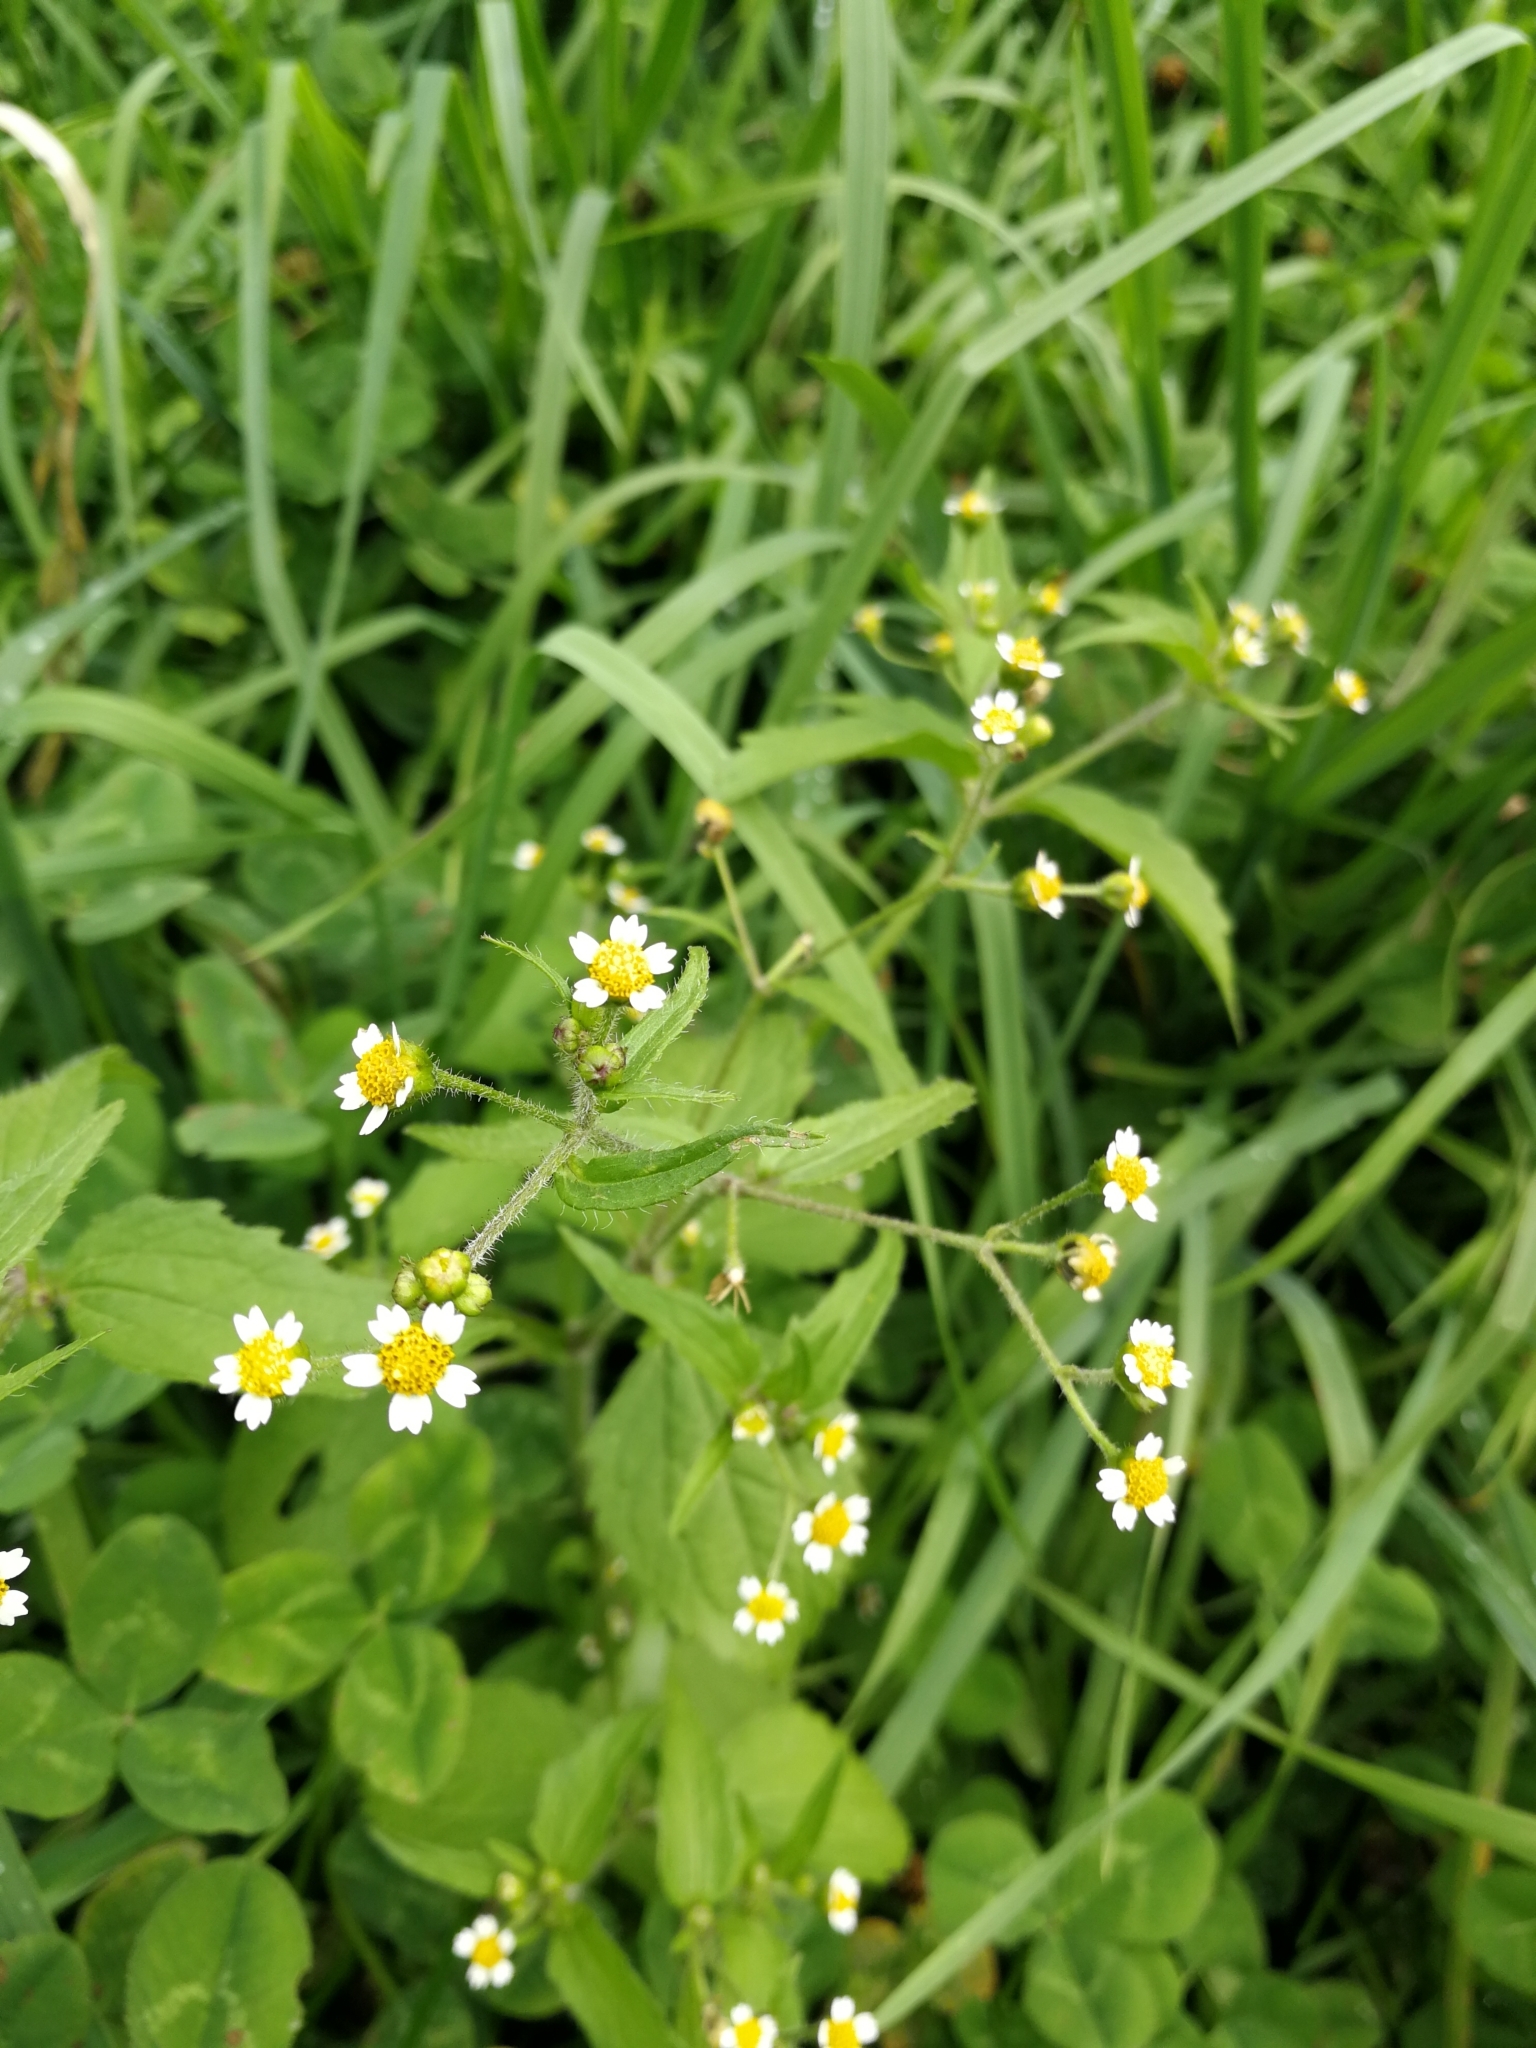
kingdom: Plantae
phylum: Tracheophyta
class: Magnoliopsida
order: Asterales
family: Asteraceae
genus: Galinsoga
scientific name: Galinsoga quadriradiata
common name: Shaggy soldier
